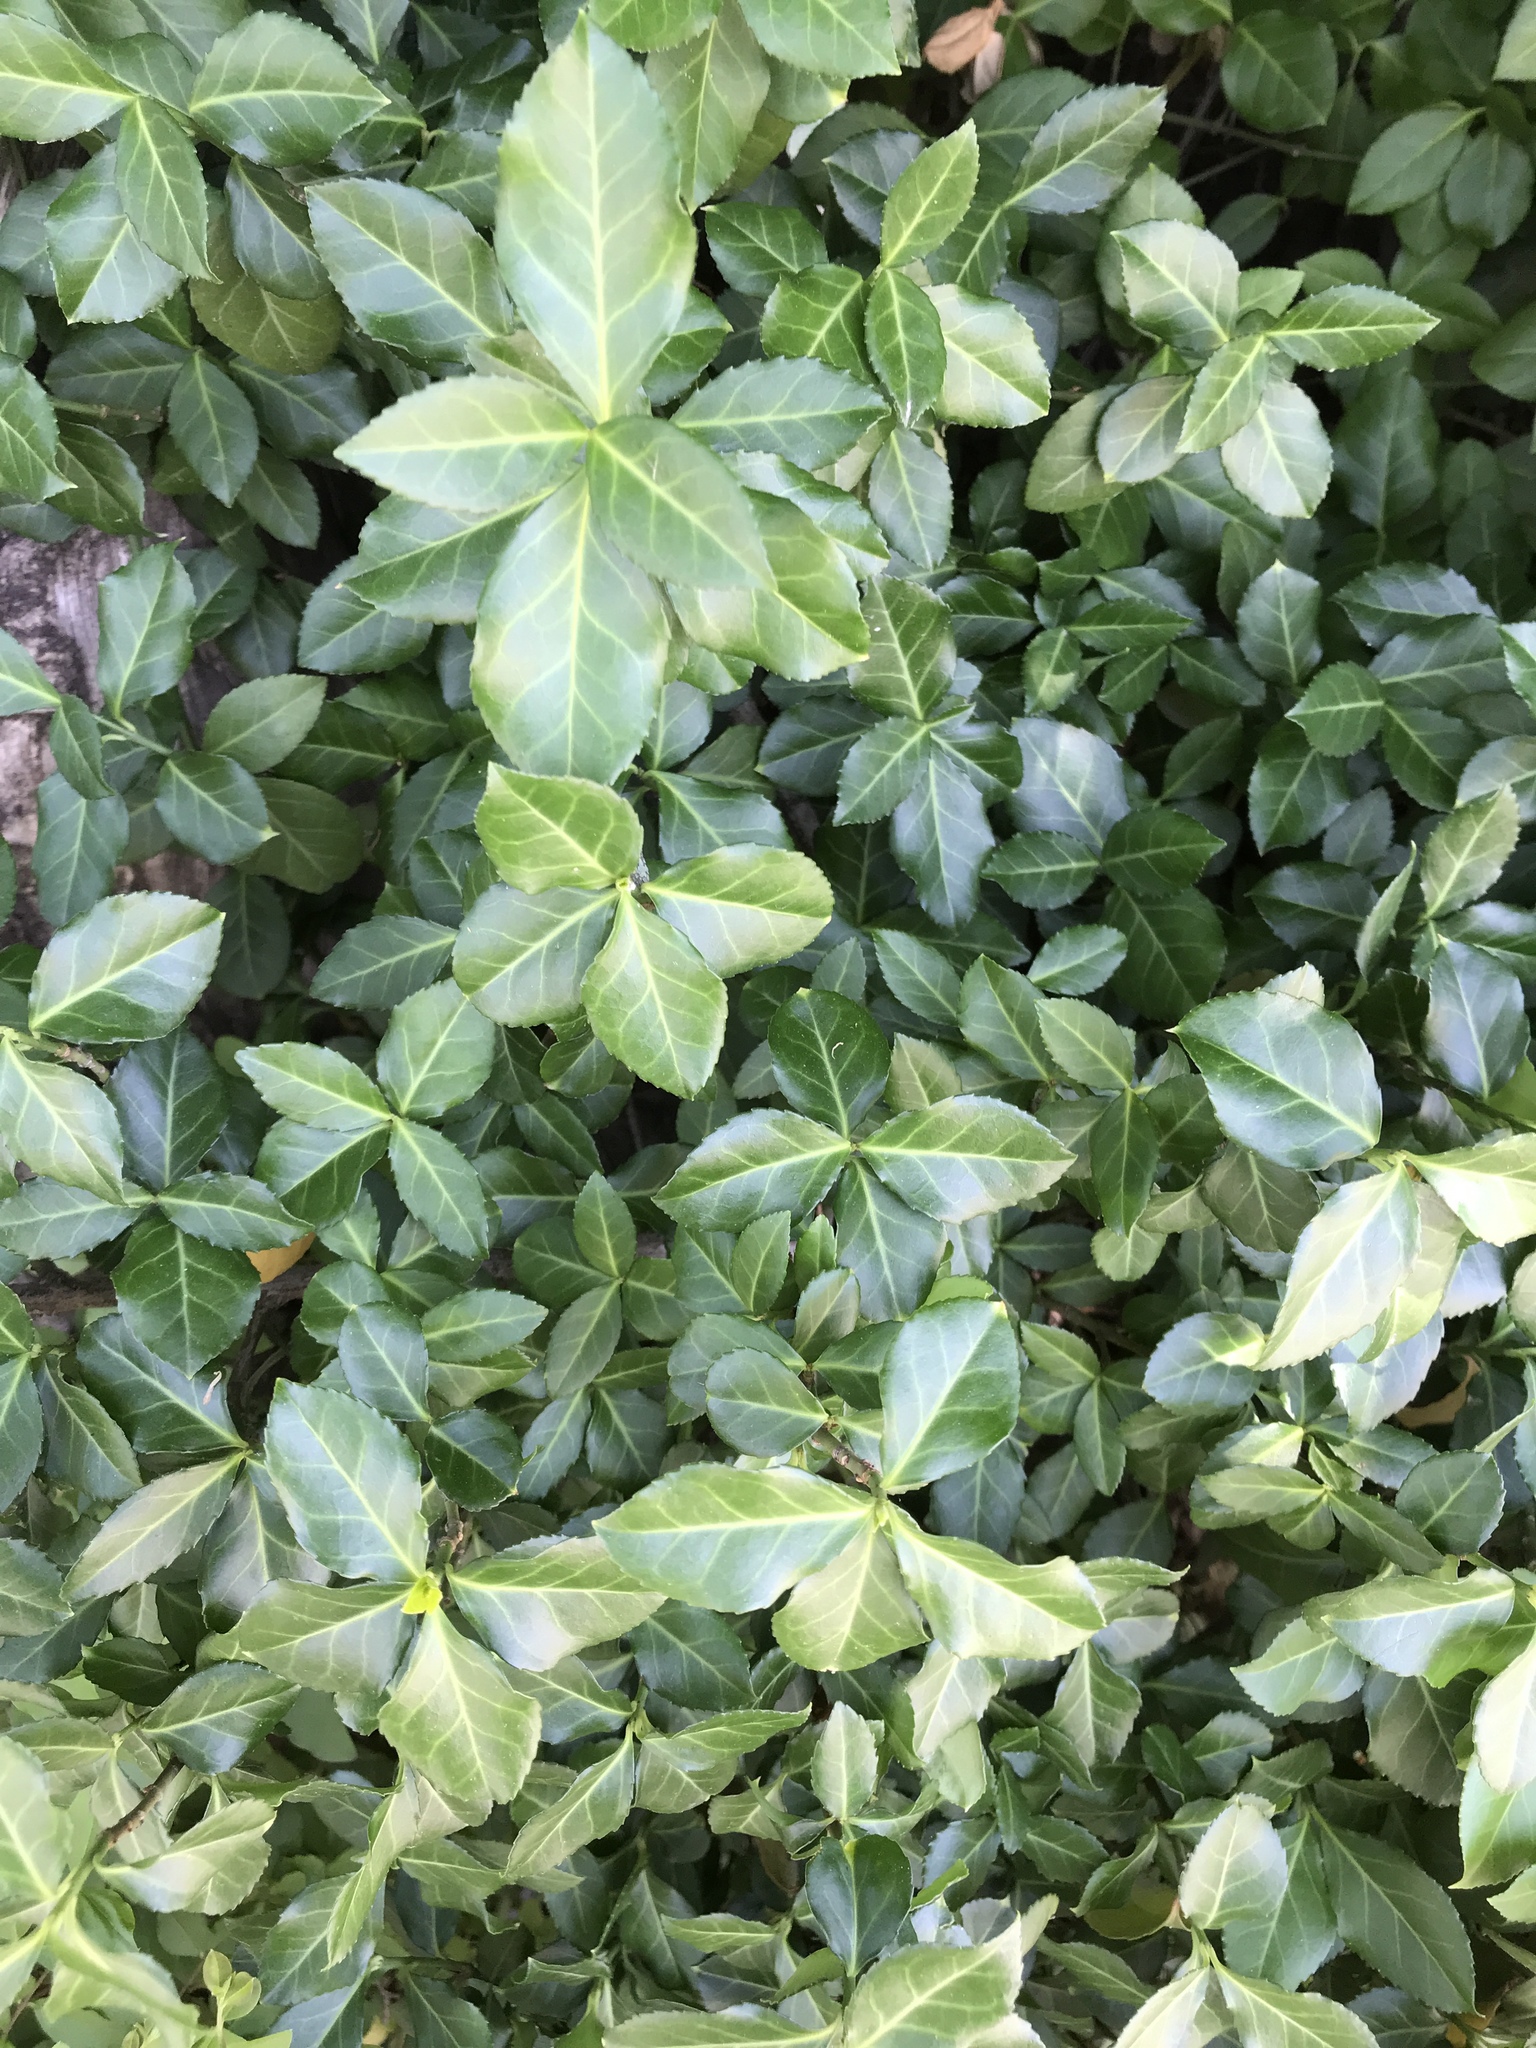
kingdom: Plantae
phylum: Tracheophyta
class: Magnoliopsida
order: Celastrales
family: Celastraceae
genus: Euonymus
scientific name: Euonymus fortunei
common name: Climbing euonymus
